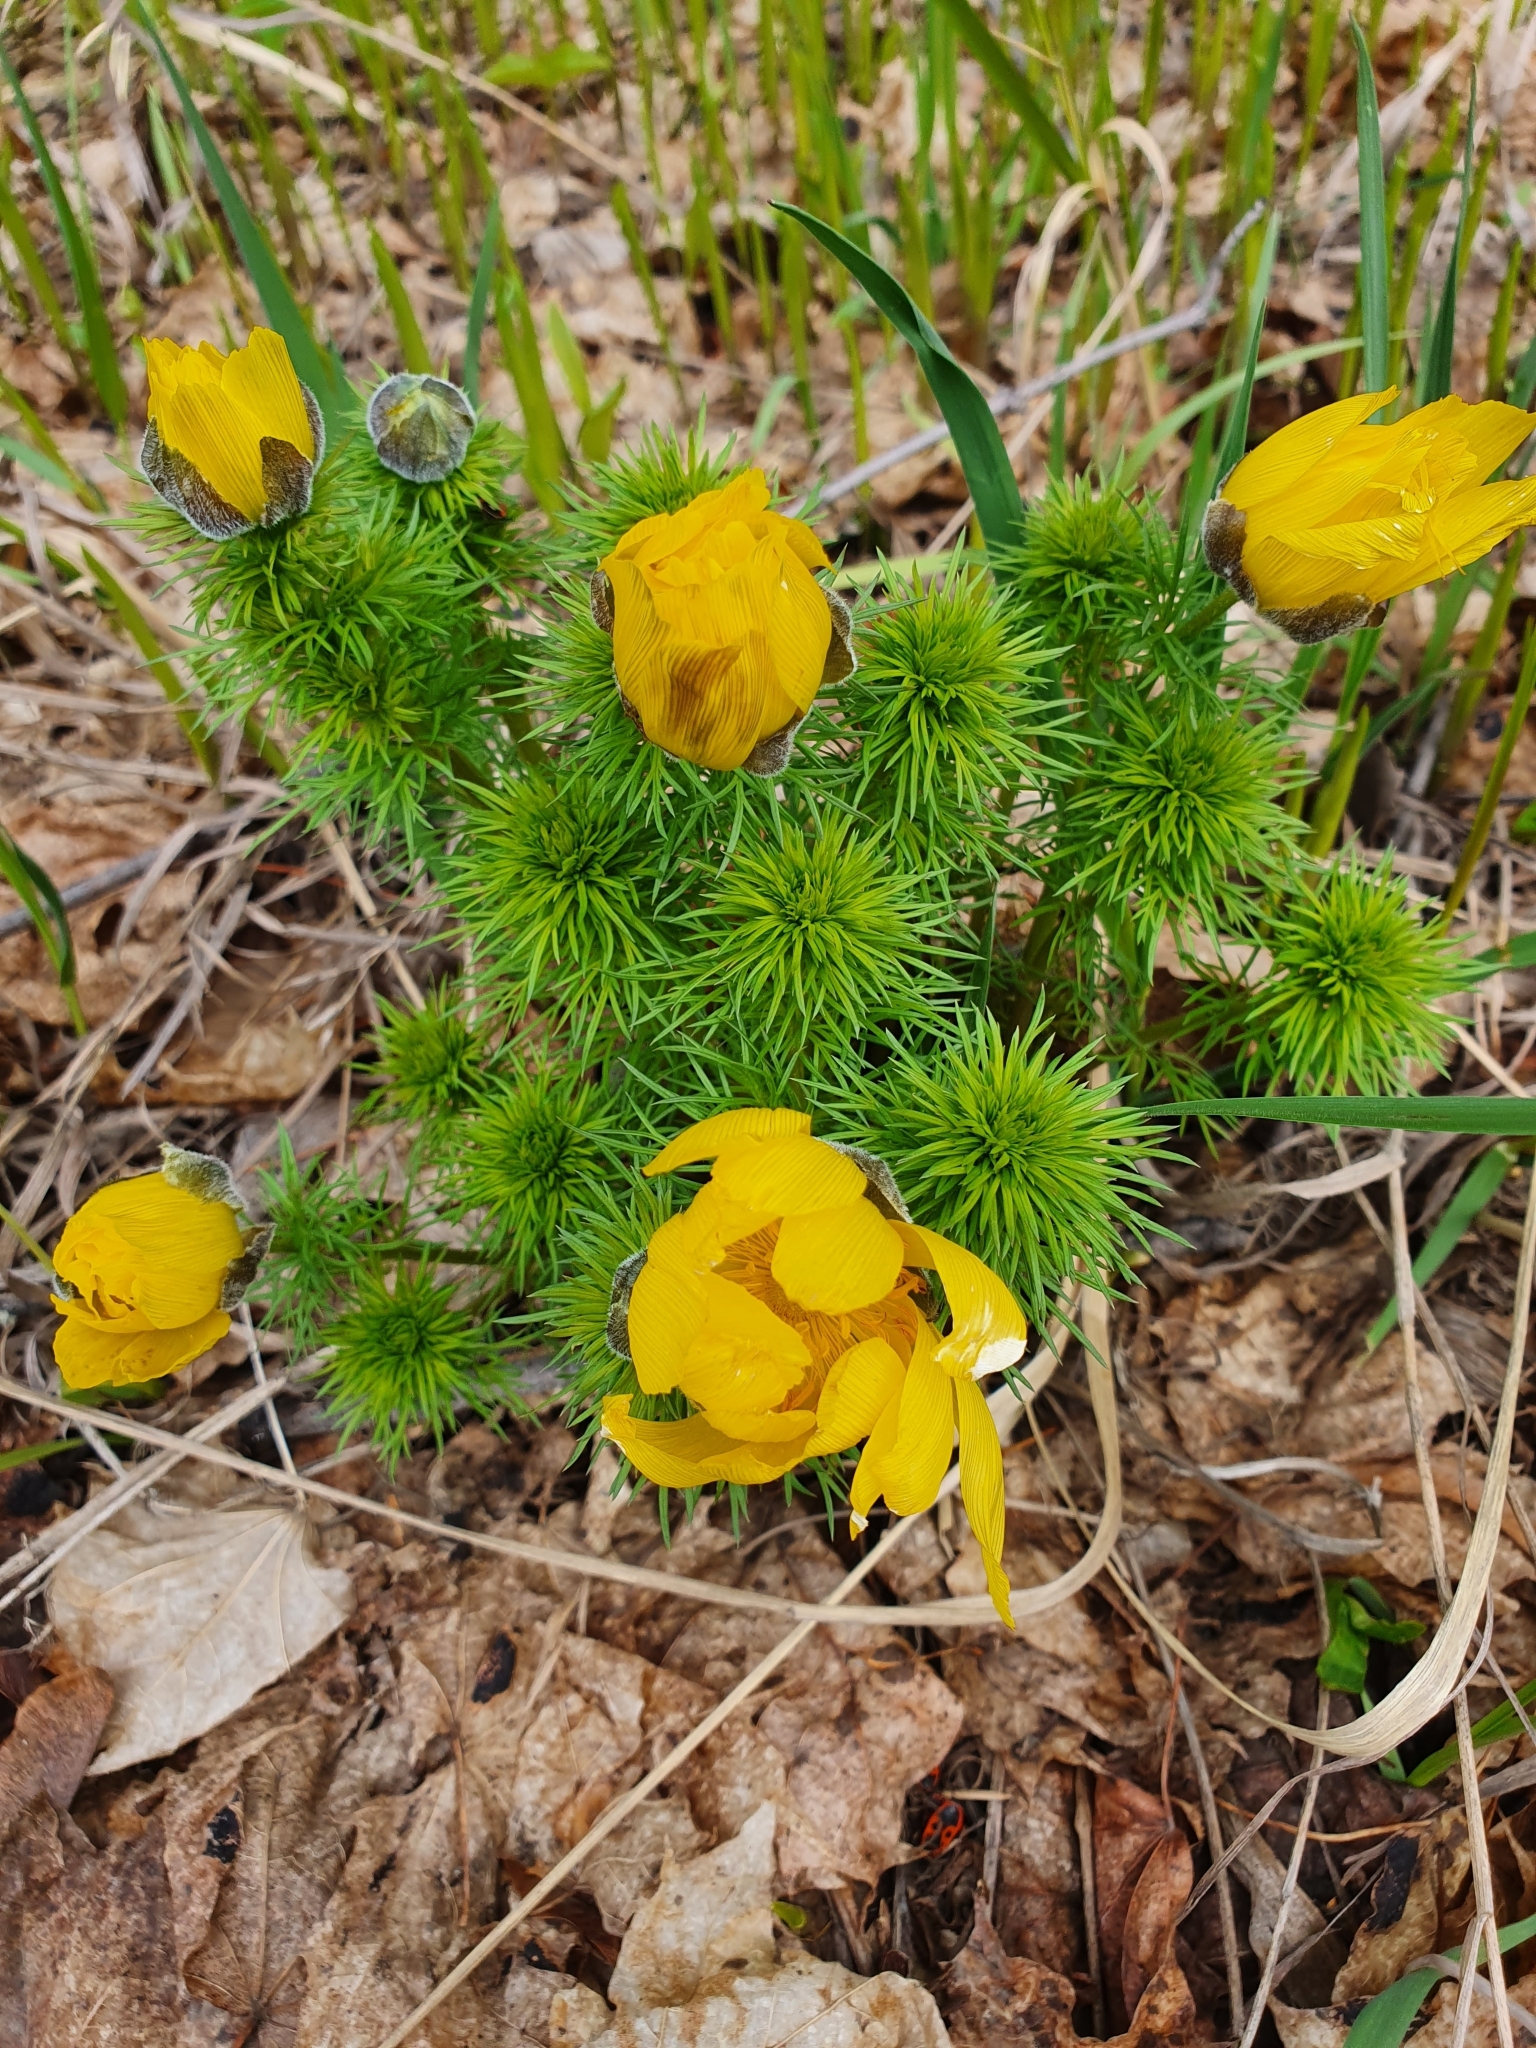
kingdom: Plantae
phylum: Tracheophyta
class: Magnoliopsida
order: Ranunculales
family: Ranunculaceae
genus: Adonis
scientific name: Adonis vernalis
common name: Yellow pheasants-eye
